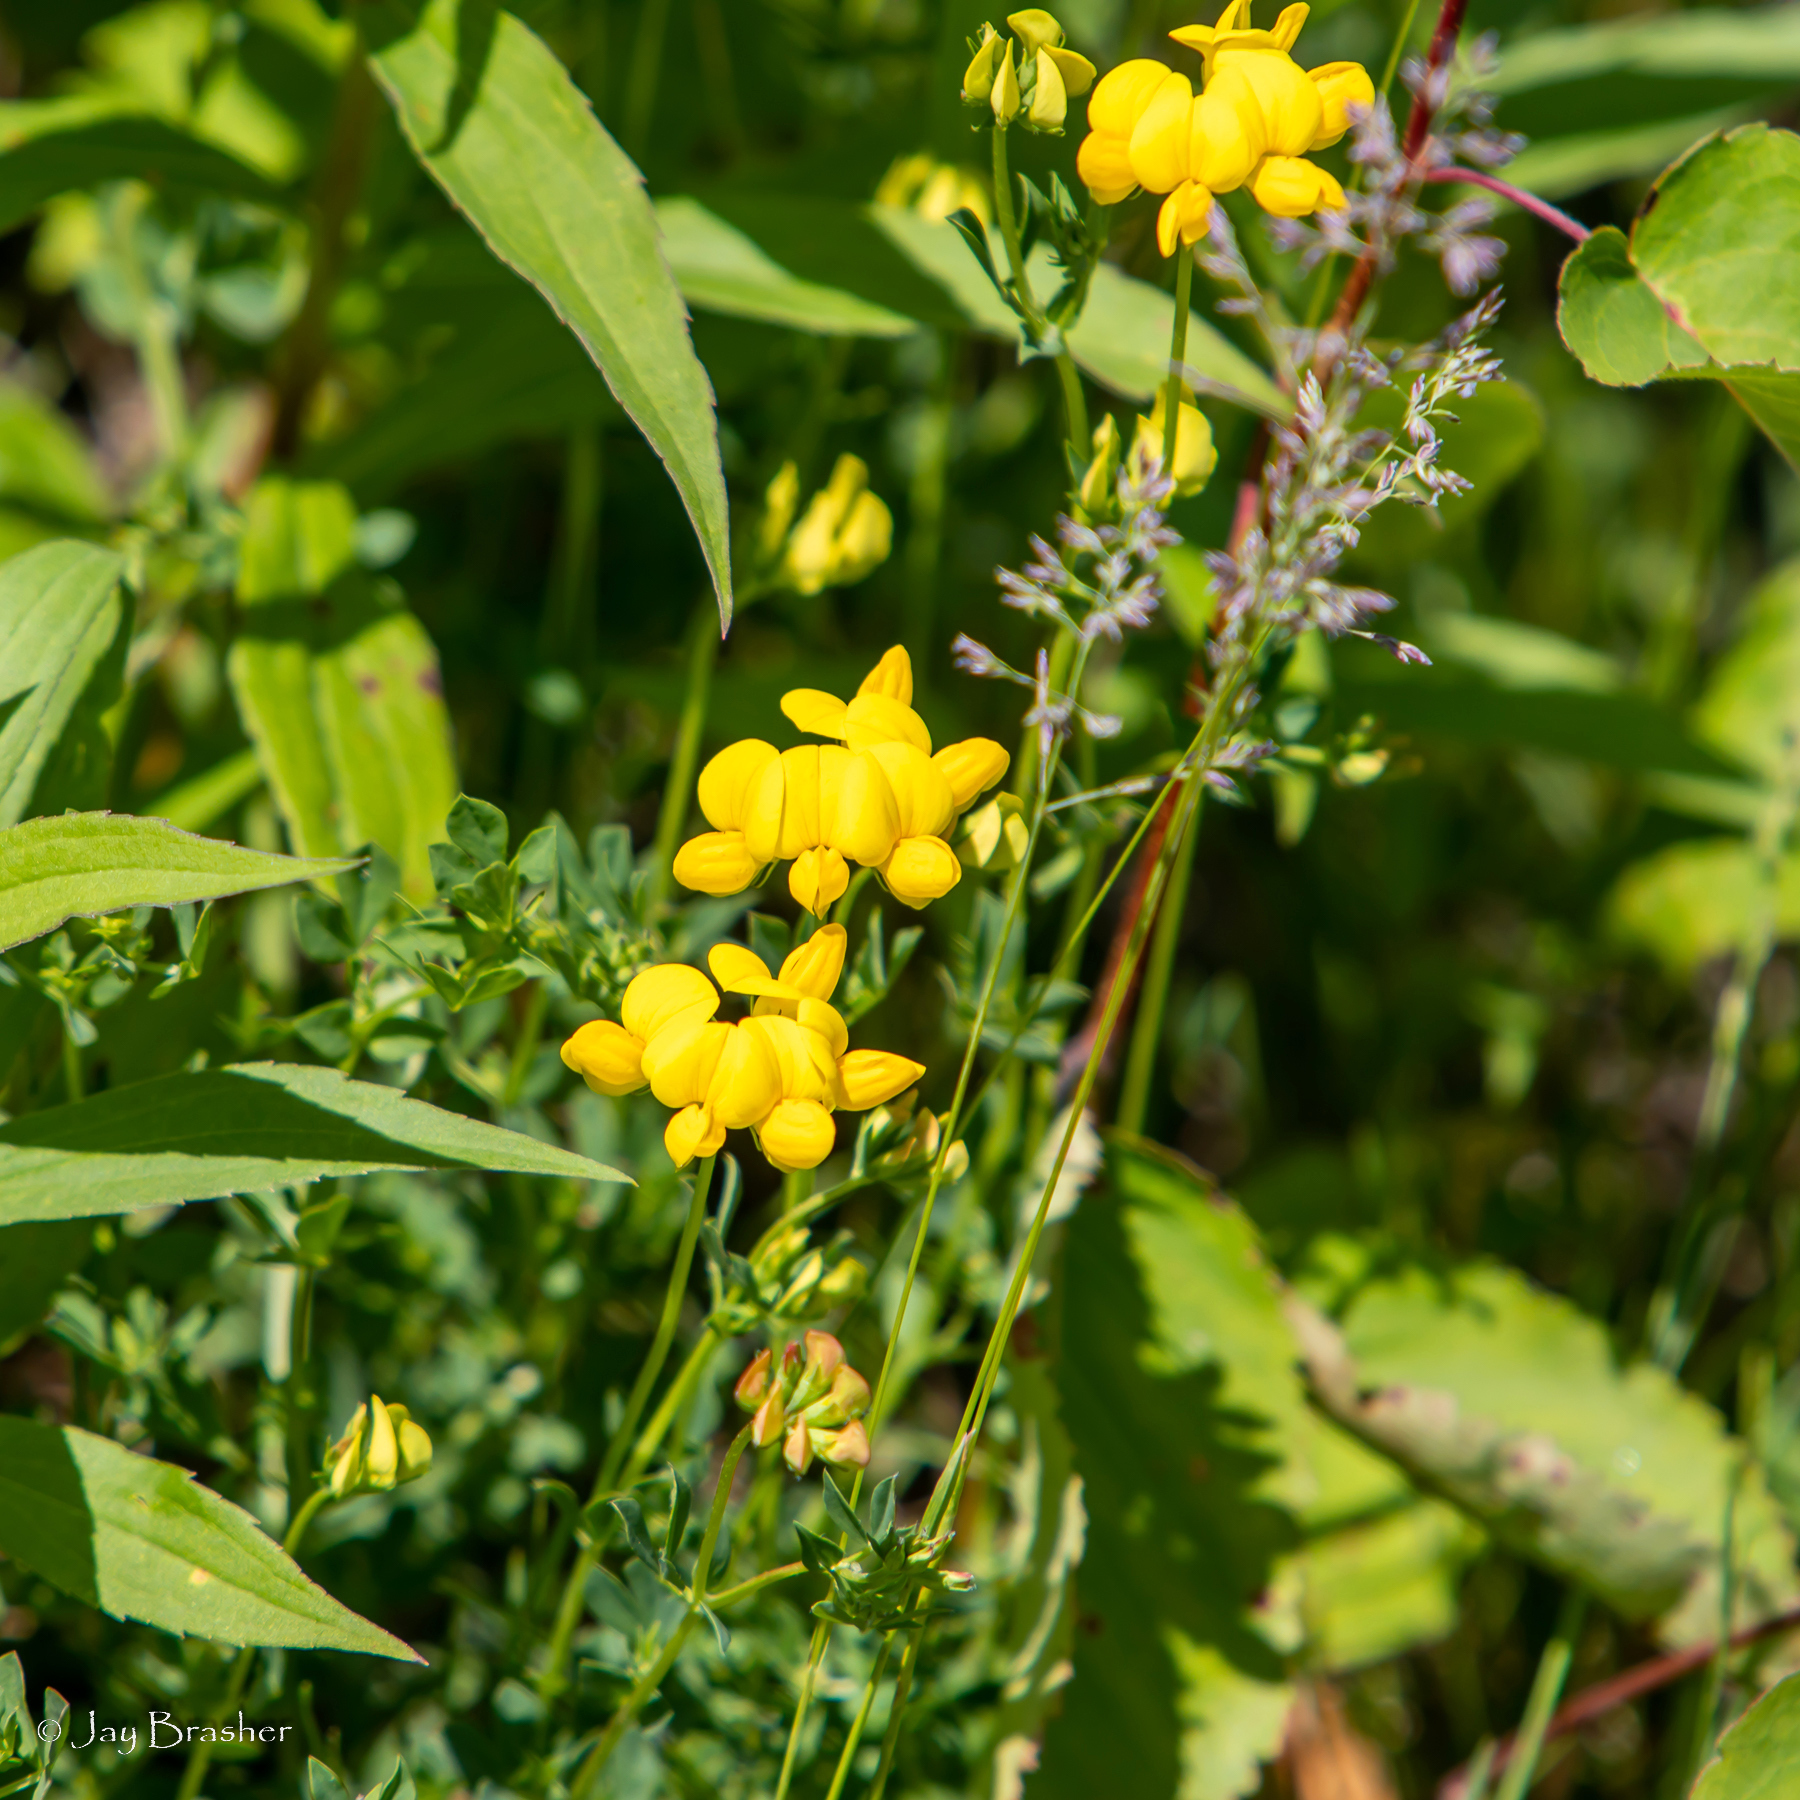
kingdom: Plantae
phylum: Tracheophyta
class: Magnoliopsida
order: Fabales
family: Fabaceae
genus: Lotus
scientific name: Lotus corniculatus
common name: Common bird's-foot-trefoil
